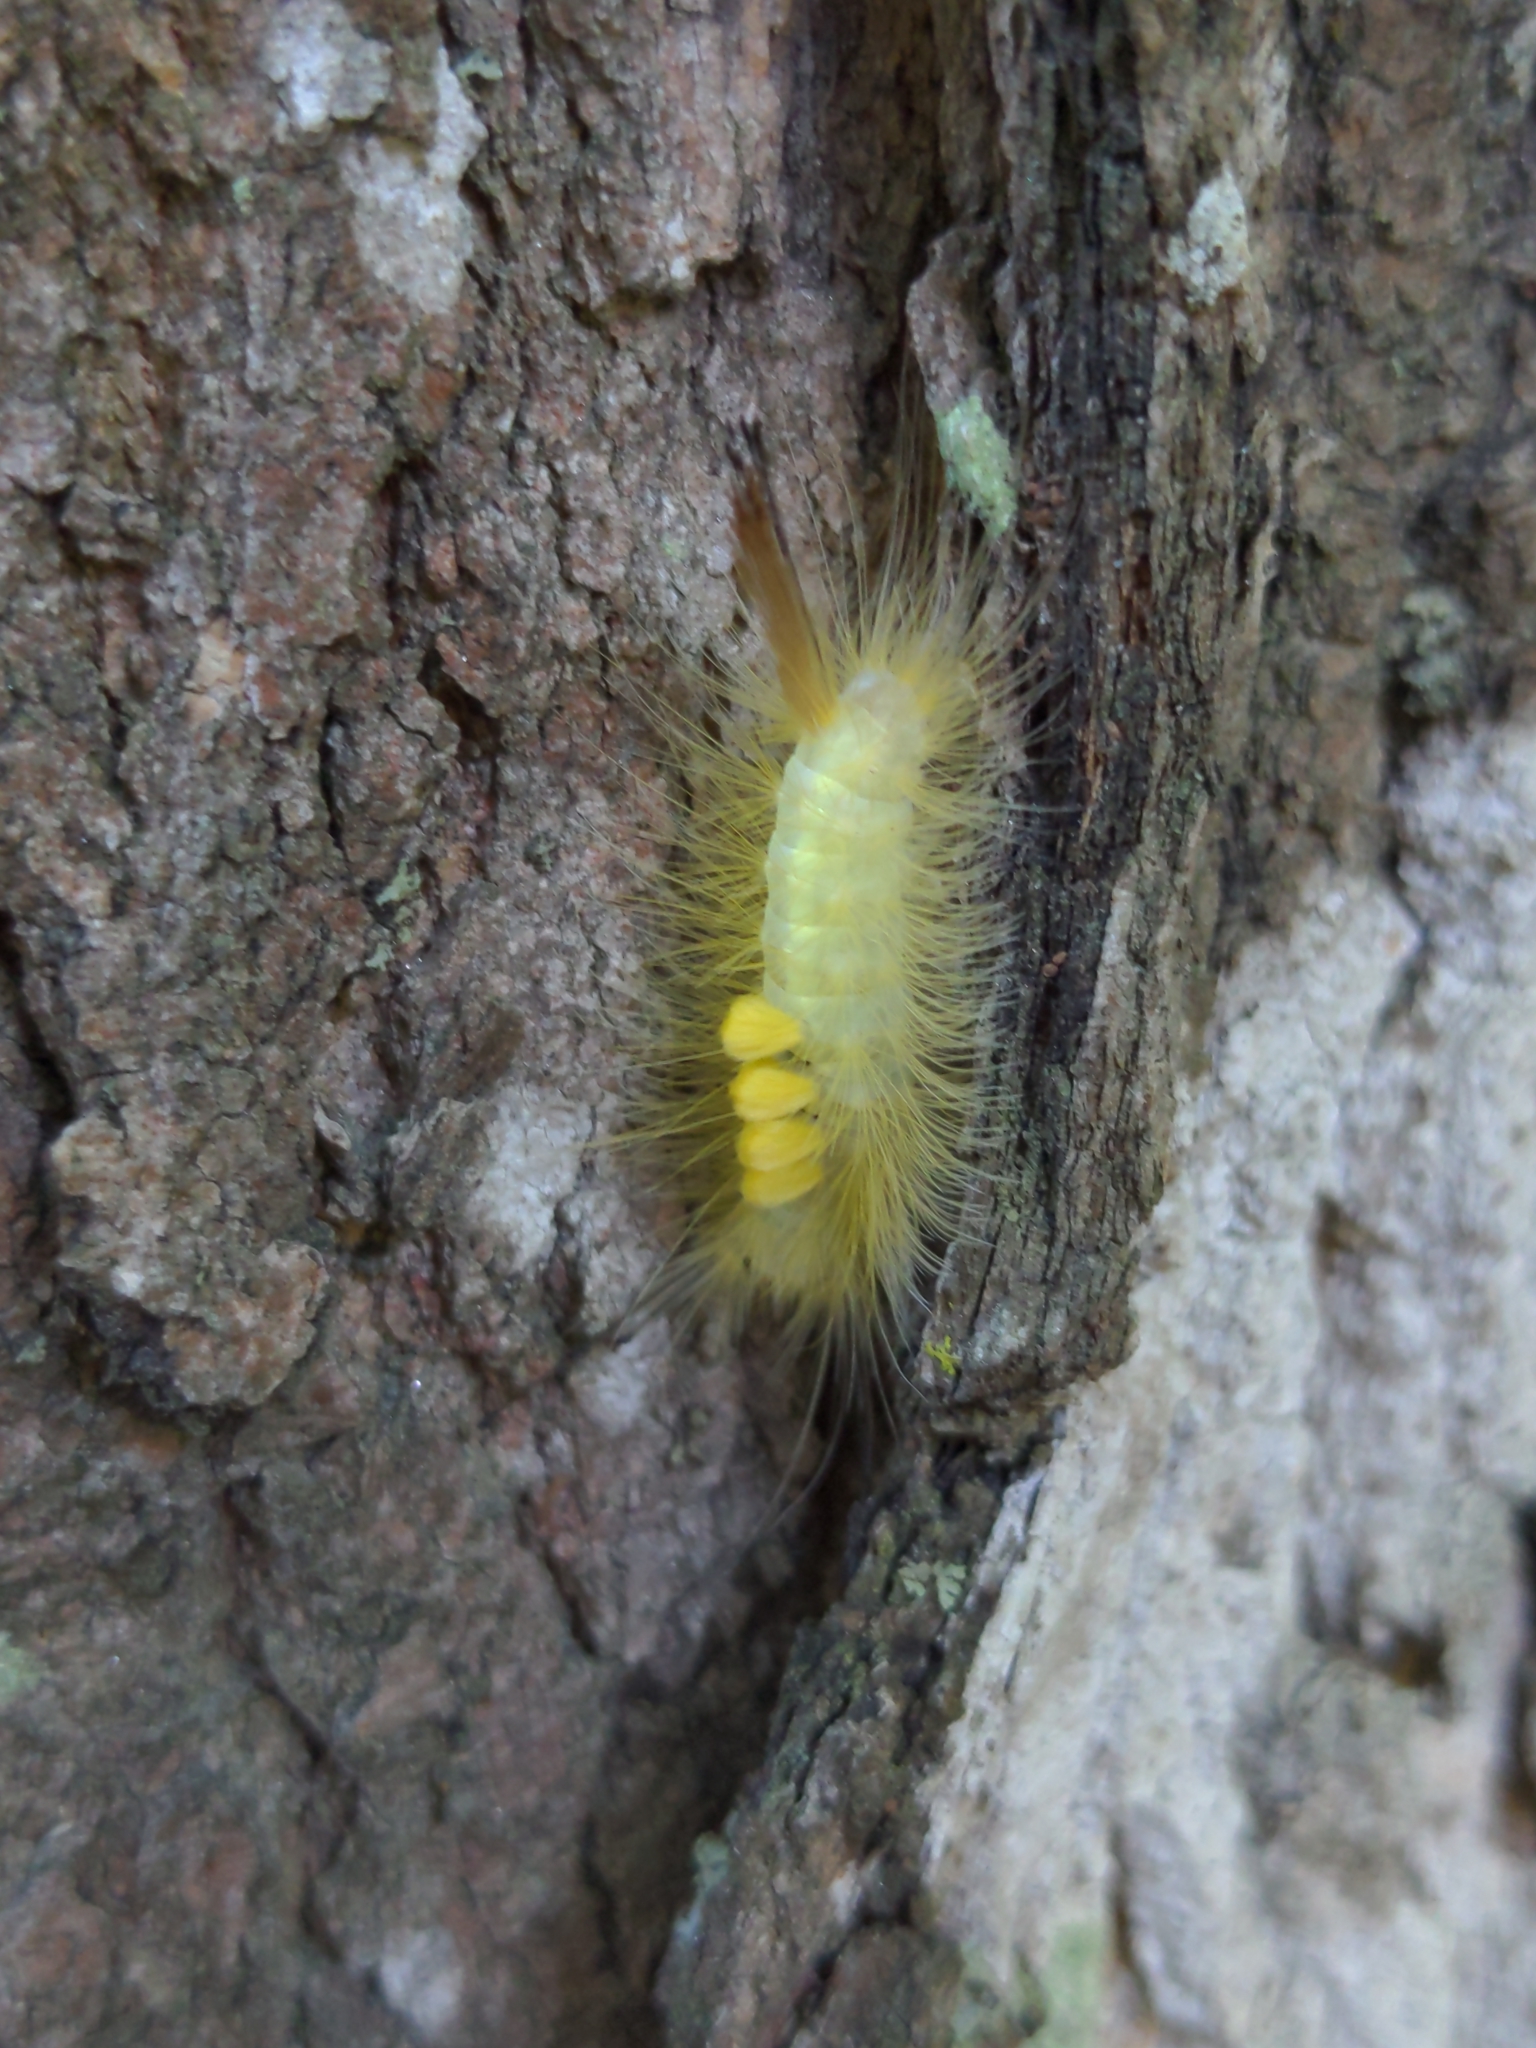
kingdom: Animalia
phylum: Arthropoda
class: Insecta
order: Lepidoptera
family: Erebidae
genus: Orgyia
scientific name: Orgyia definita
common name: Definite tussock moth
